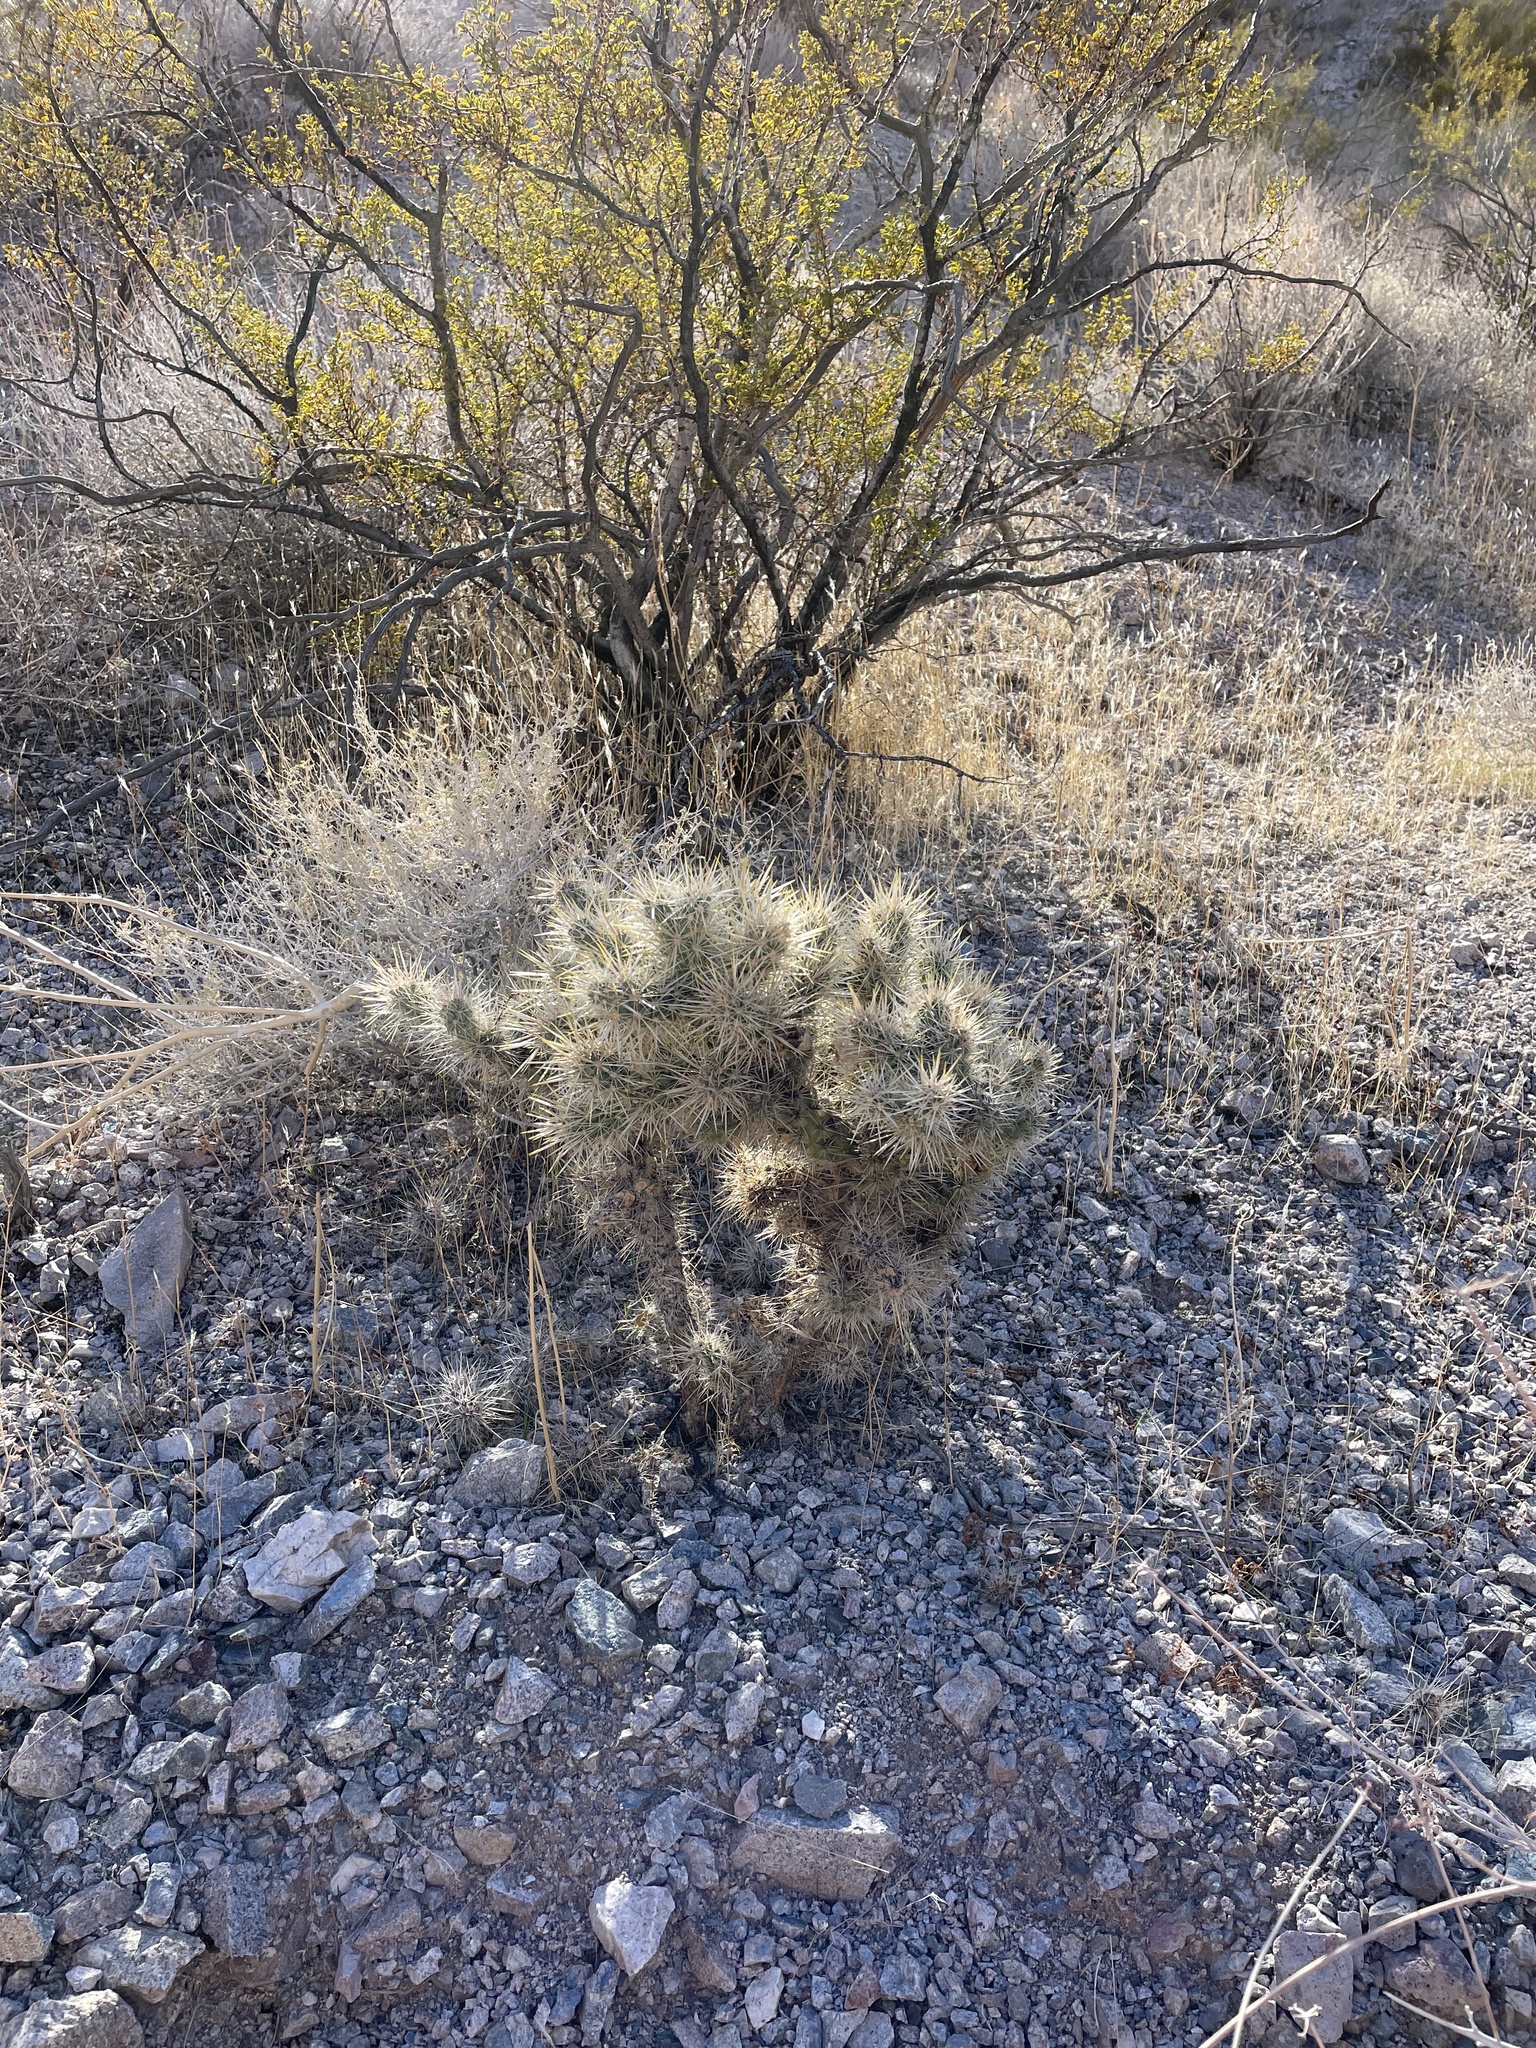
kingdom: Plantae
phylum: Tracheophyta
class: Magnoliopsida
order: Caryophyllales
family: Cactaceae
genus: Cylindropuntia
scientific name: Cylindropuntia echinocarpa
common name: Ground cholla
